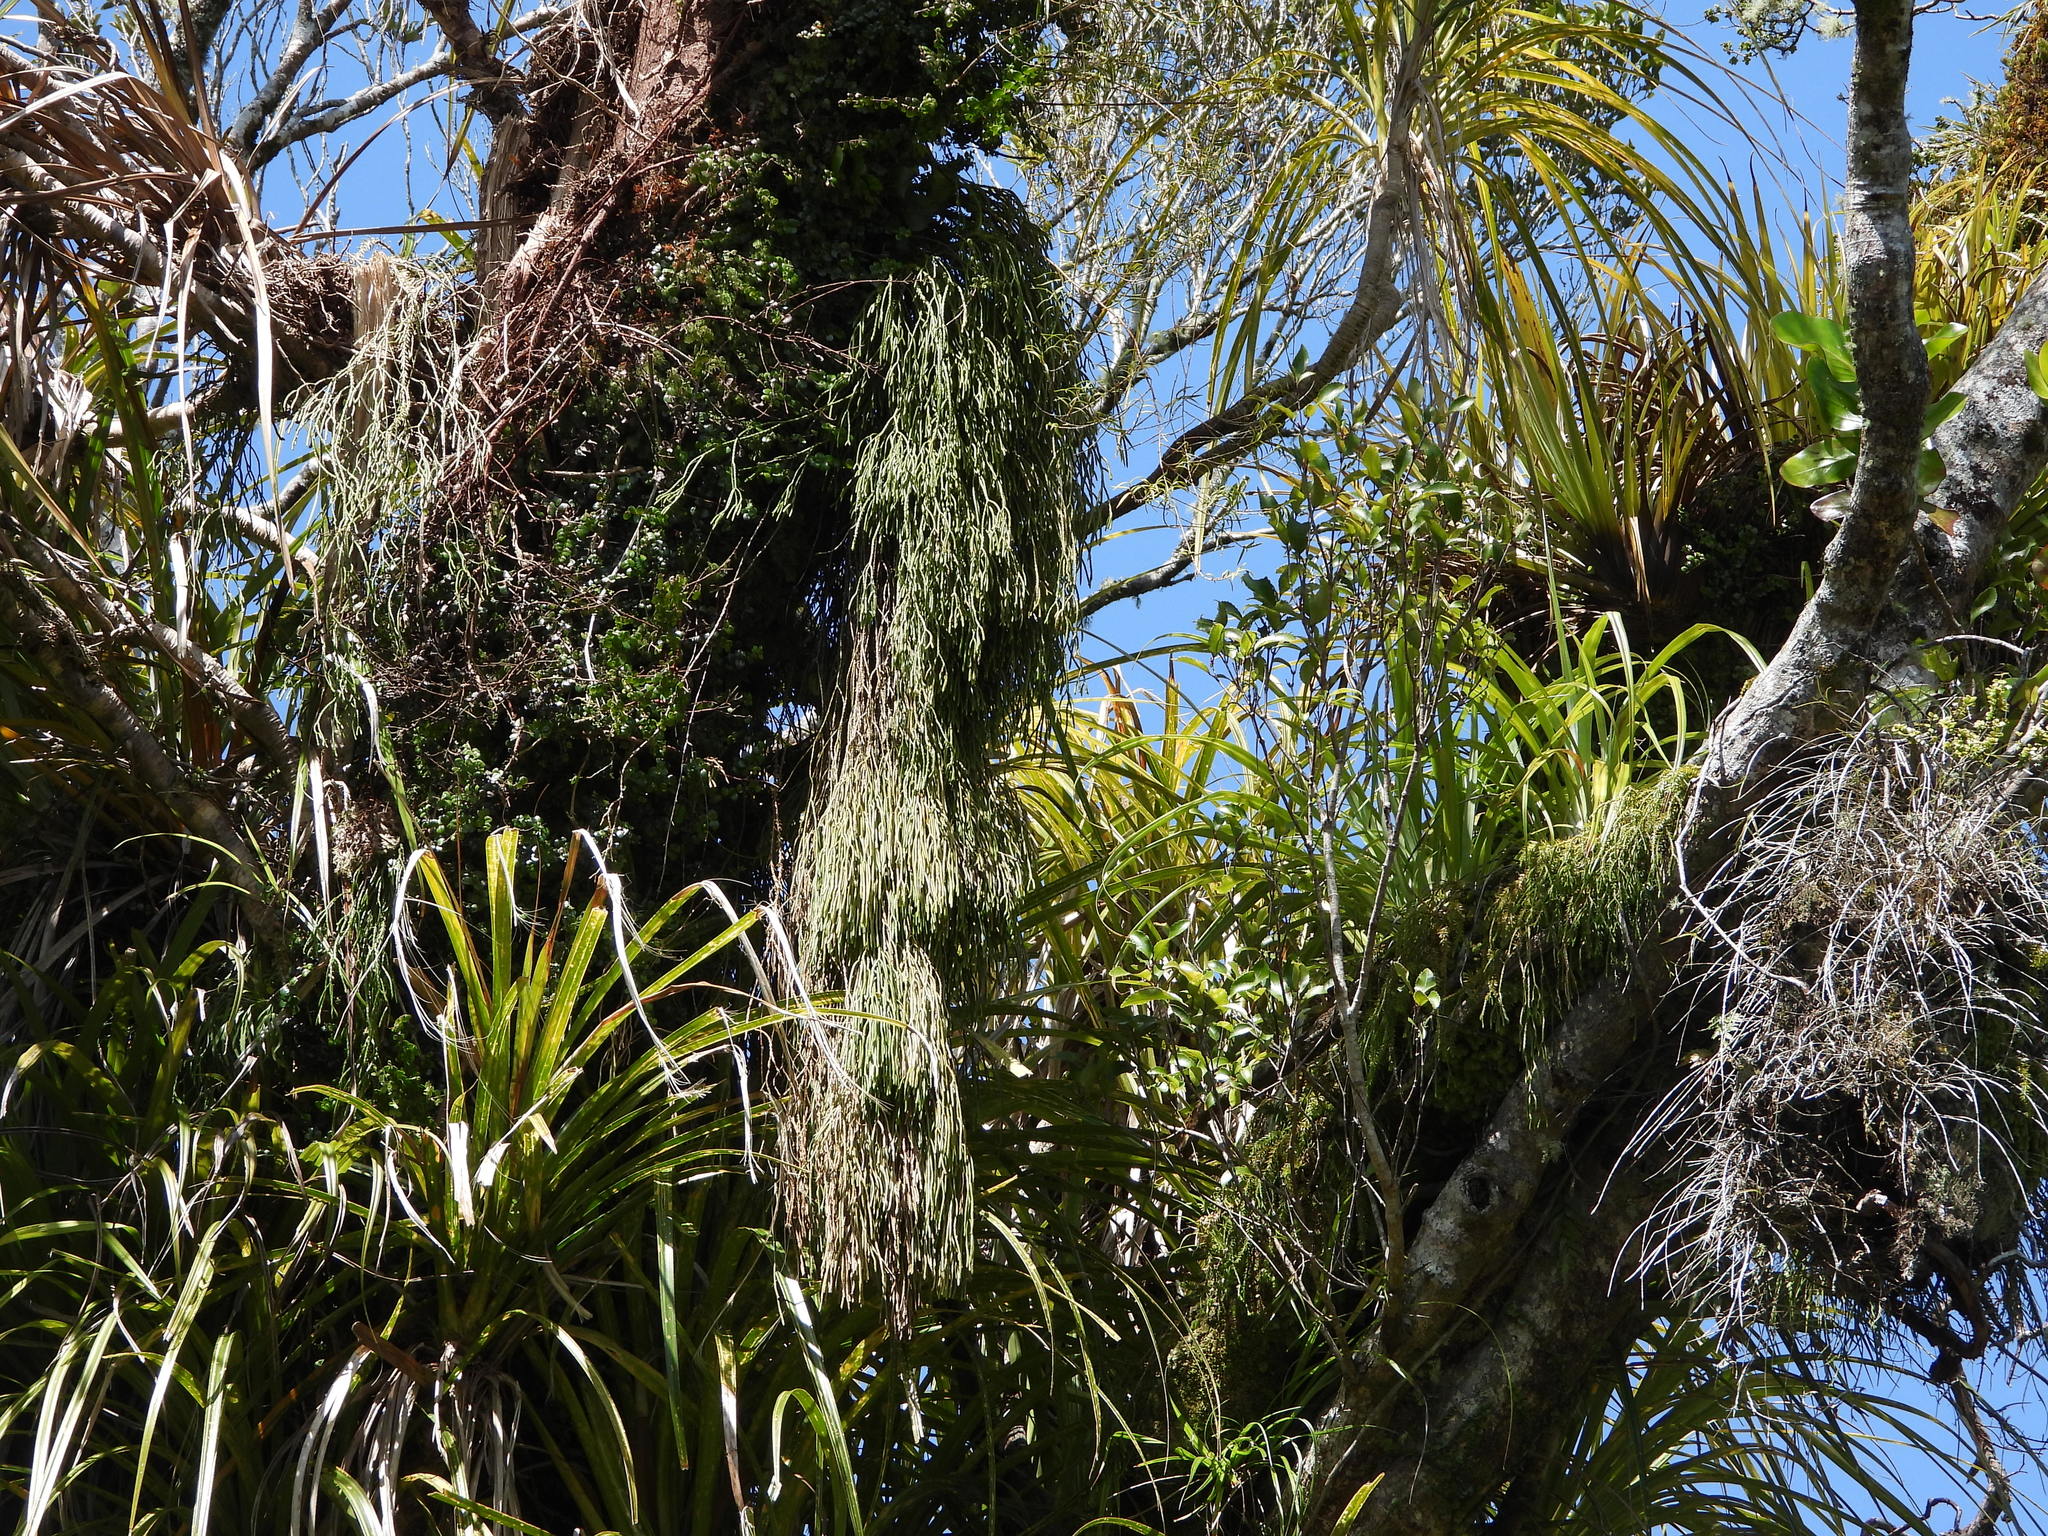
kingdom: Plantae
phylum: Tracheophyta
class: Lycopodiopsida
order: Lycopodiales
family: Lycopodiaceae
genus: Phlegmariurus
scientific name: Phlegmariurus varius
